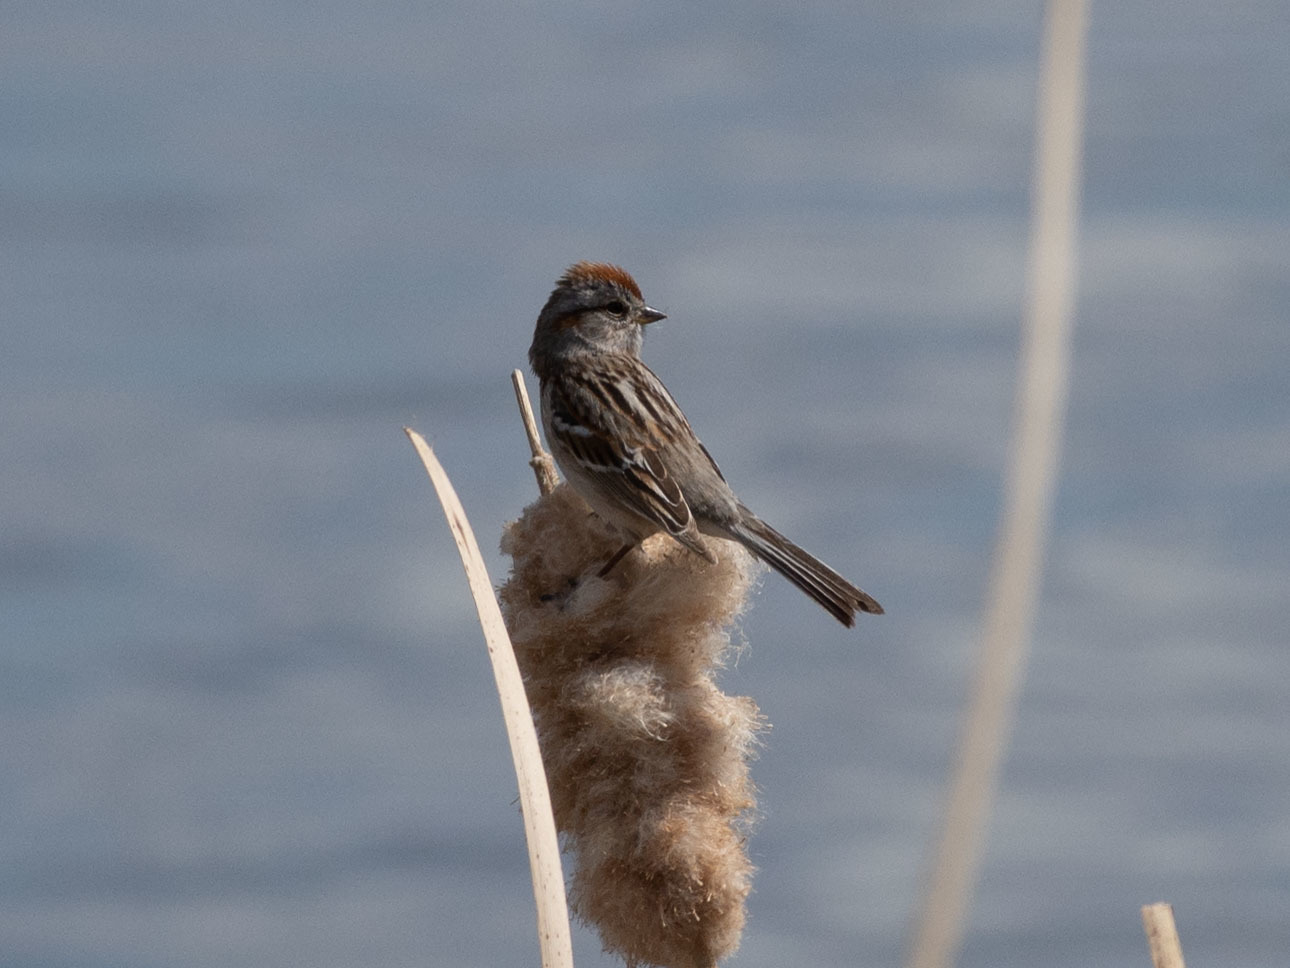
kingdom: Animalia
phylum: Chordata
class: Aves
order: Passeriformes
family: Passerellidae
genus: Spizelloides
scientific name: Spizelloides arborea
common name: American tree sparrow
